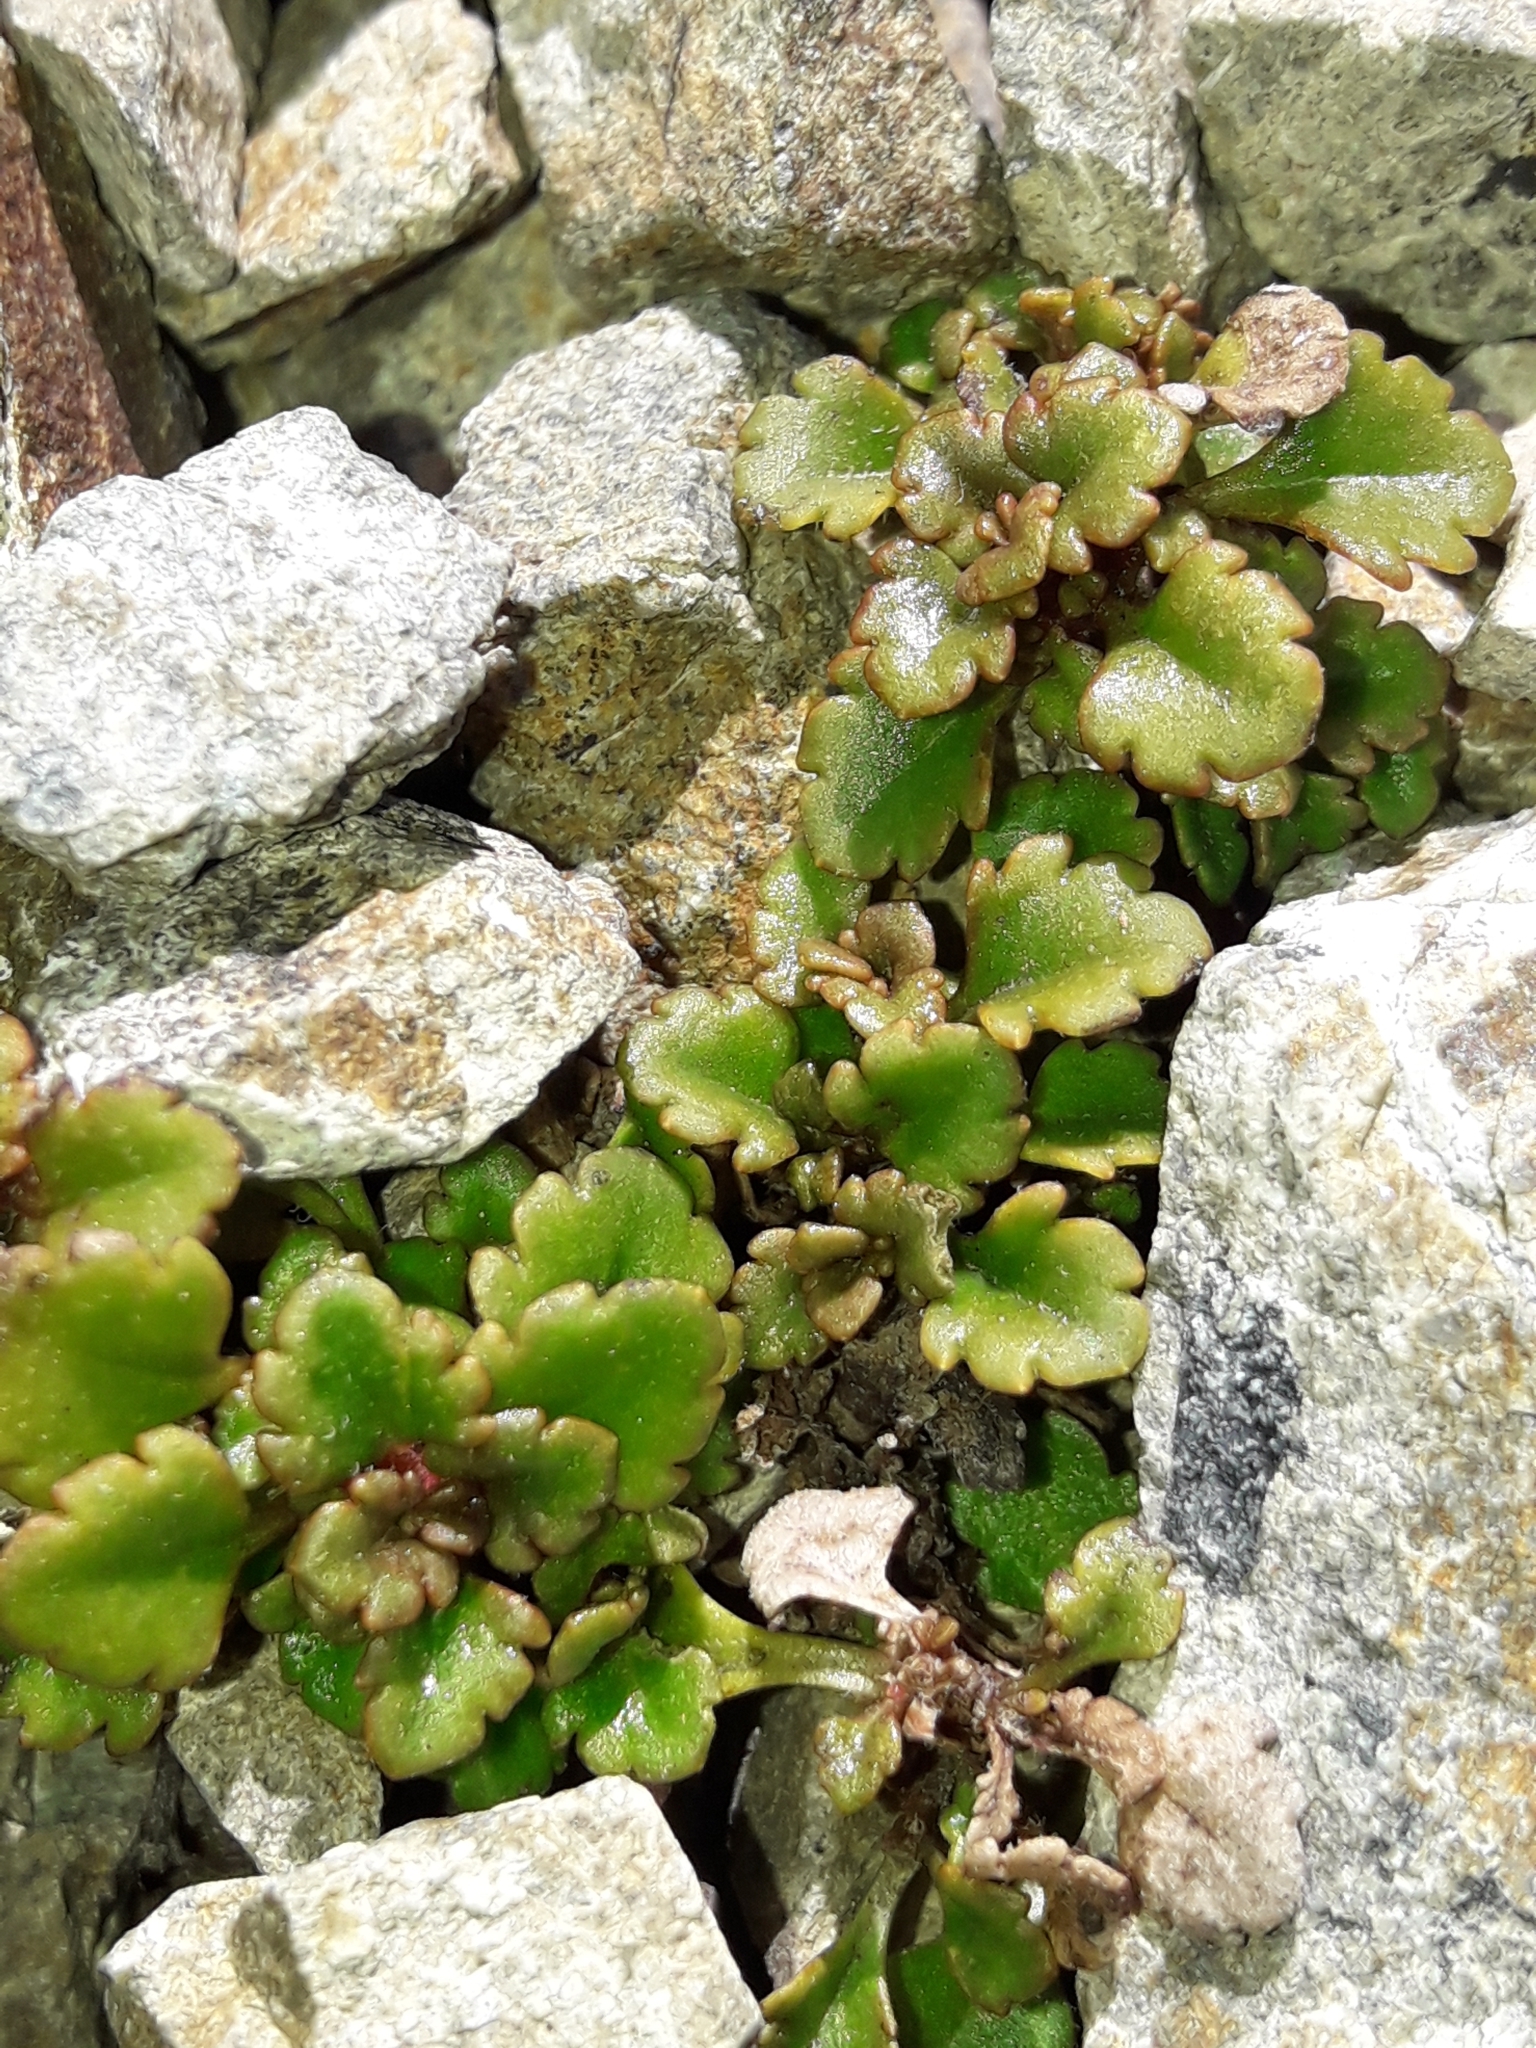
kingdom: Plantae
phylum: Tracheophyta
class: Magnoliopsida
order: Lamiales
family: Plantaginaceae
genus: Veronica
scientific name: Veronica spathulata
